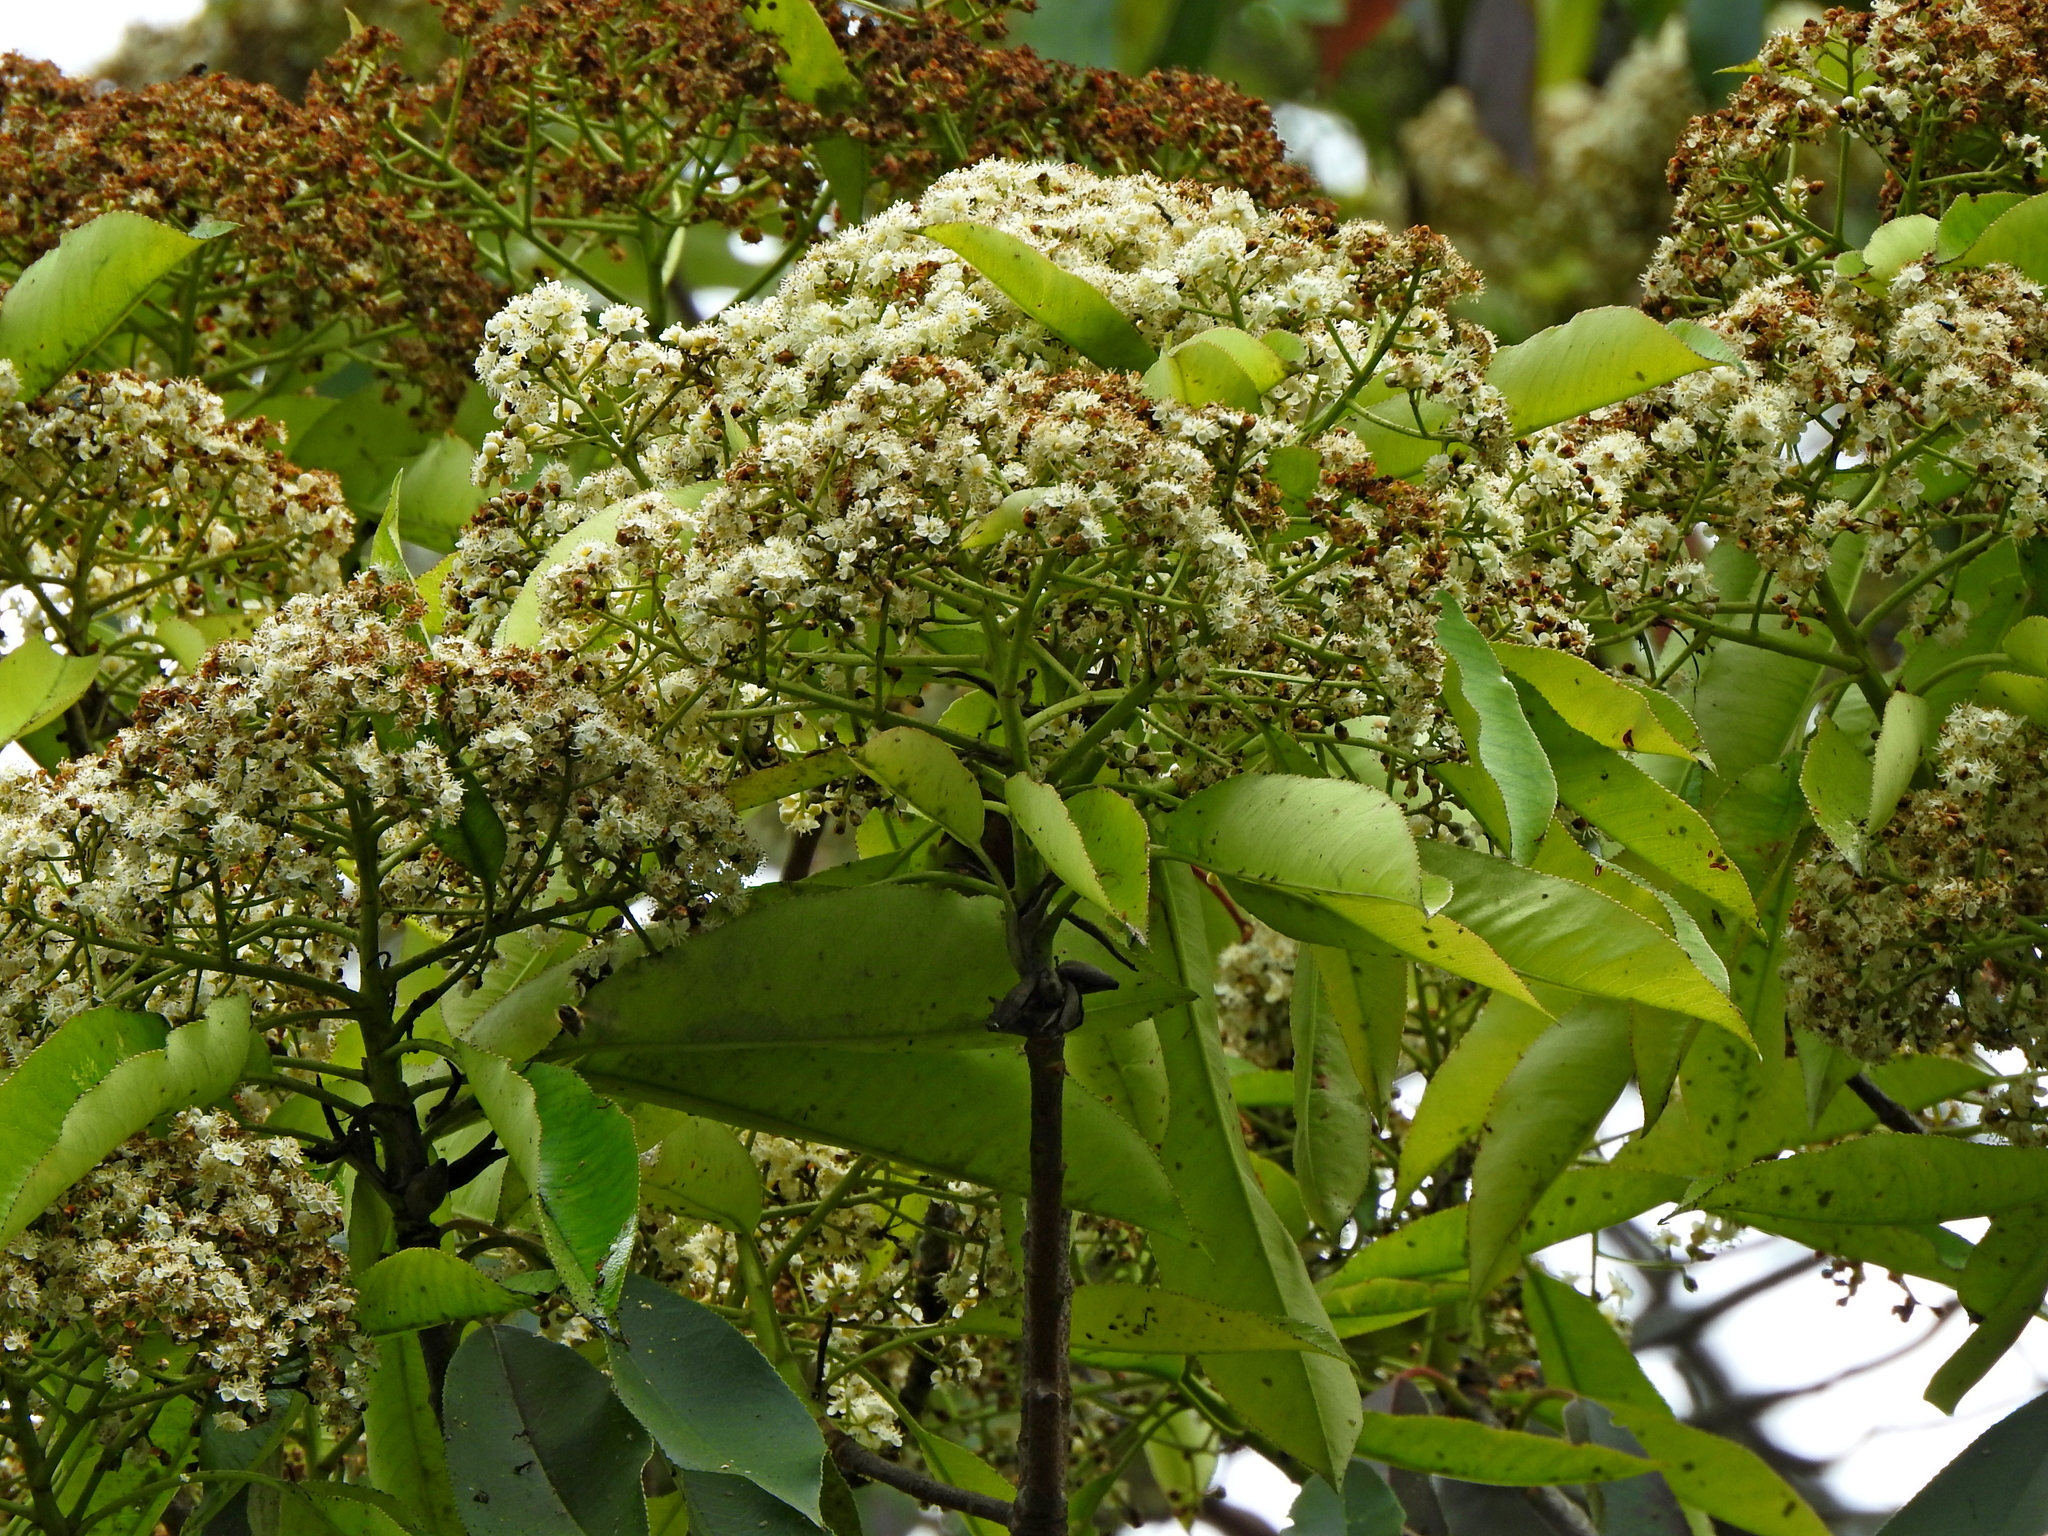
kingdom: Plantae
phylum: Tracheophyta
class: Magnoliopsida
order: Rosales
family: Rosaceae
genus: Photinia
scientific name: Photinia serratifolia
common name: Taiwanese photinia
